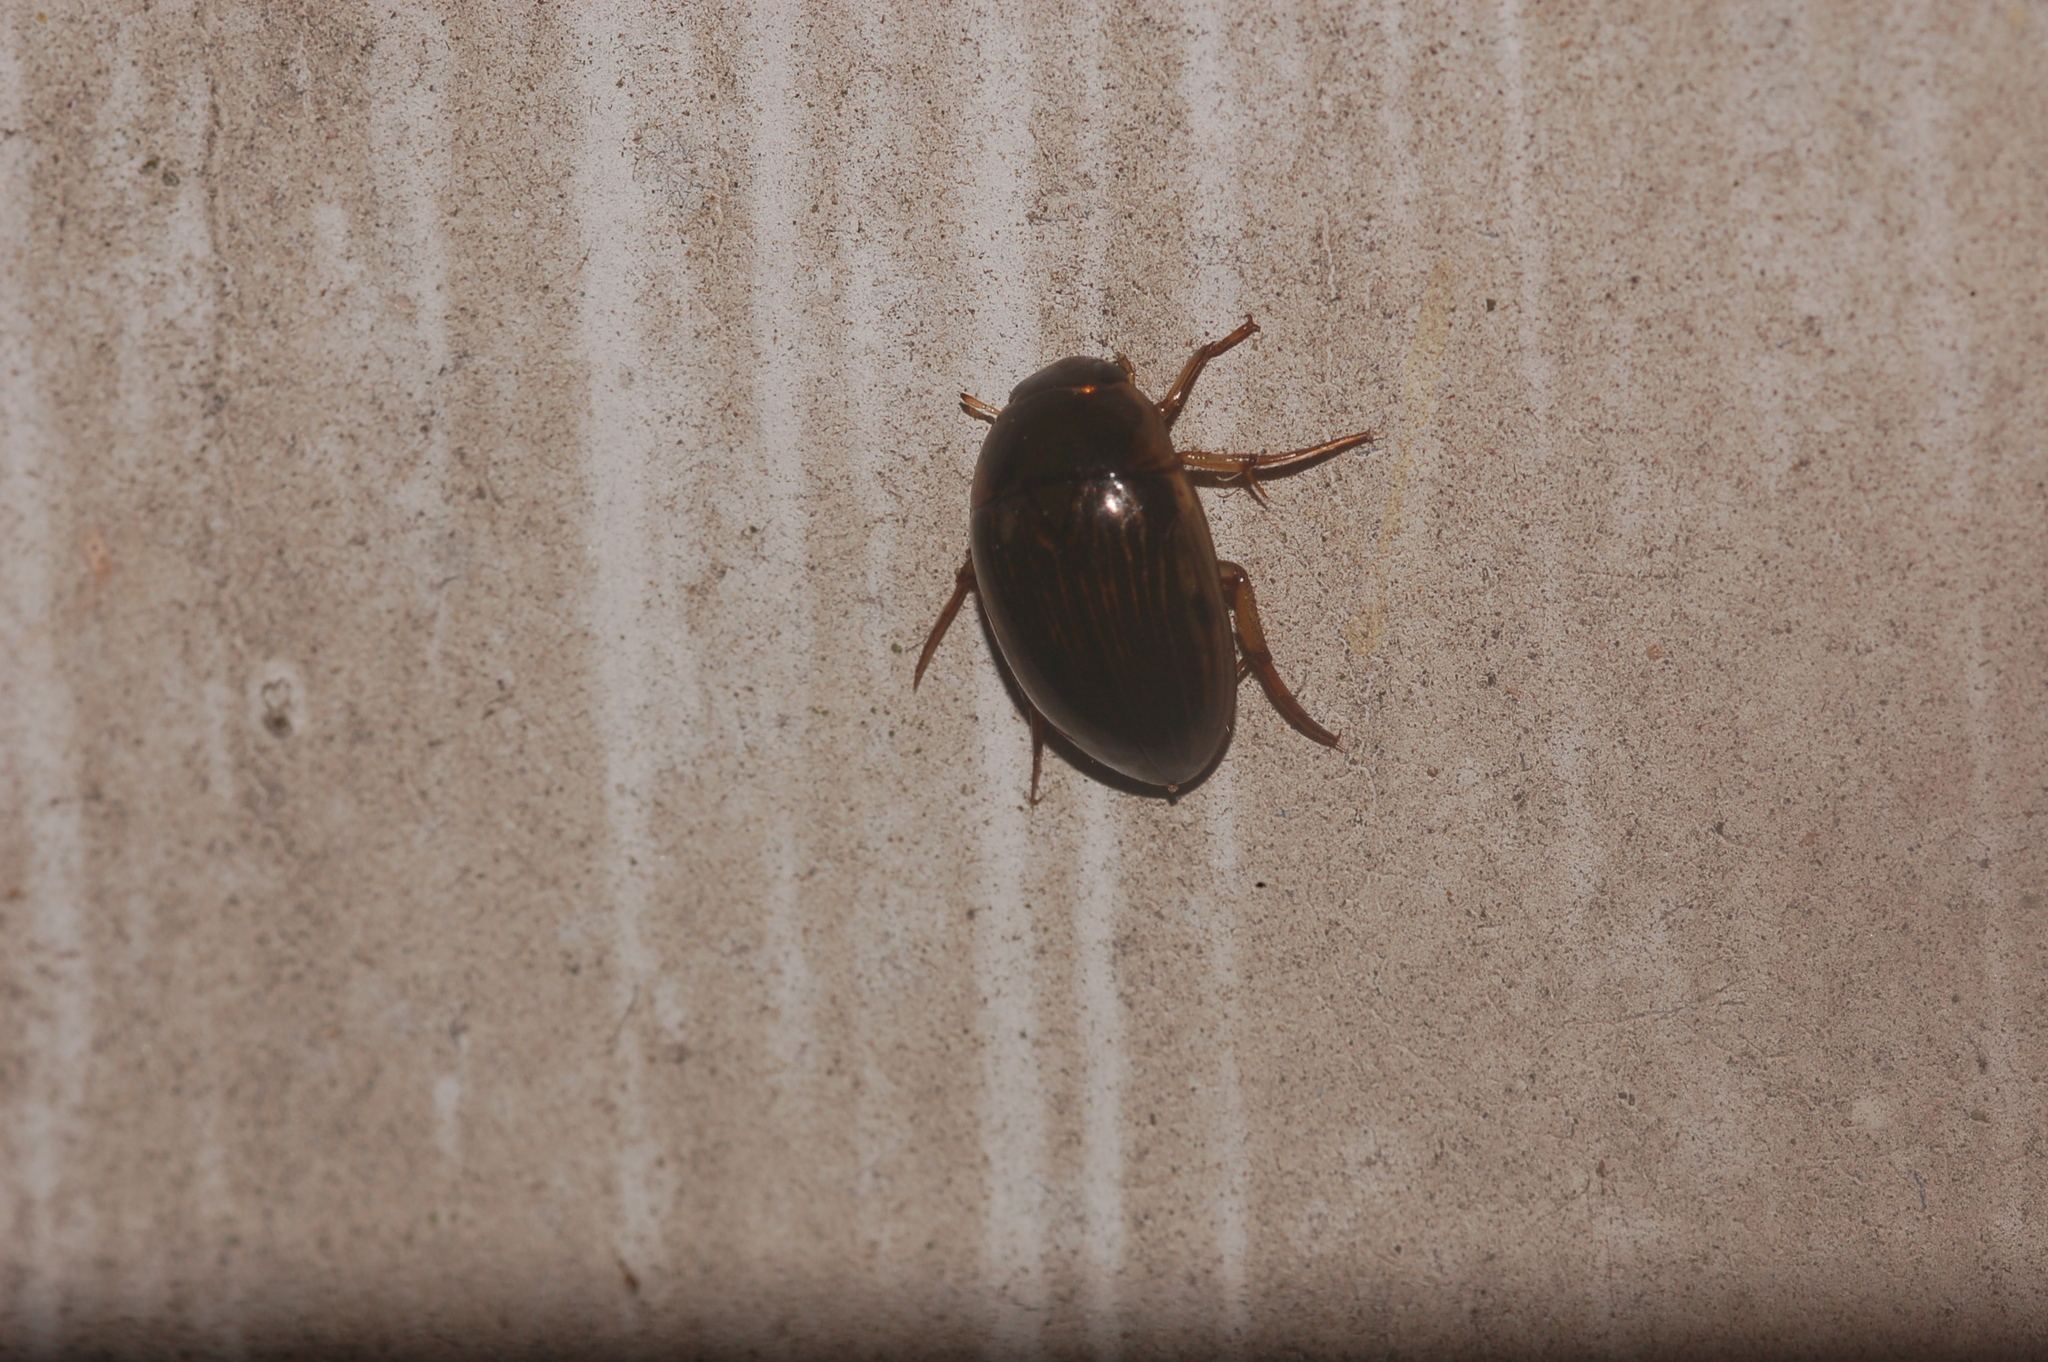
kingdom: Animalia
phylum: Arthropoda
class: Insecta
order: Coleoptera
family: Hydrophilidae
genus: Tropisternus
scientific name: Tropisternus collaris
